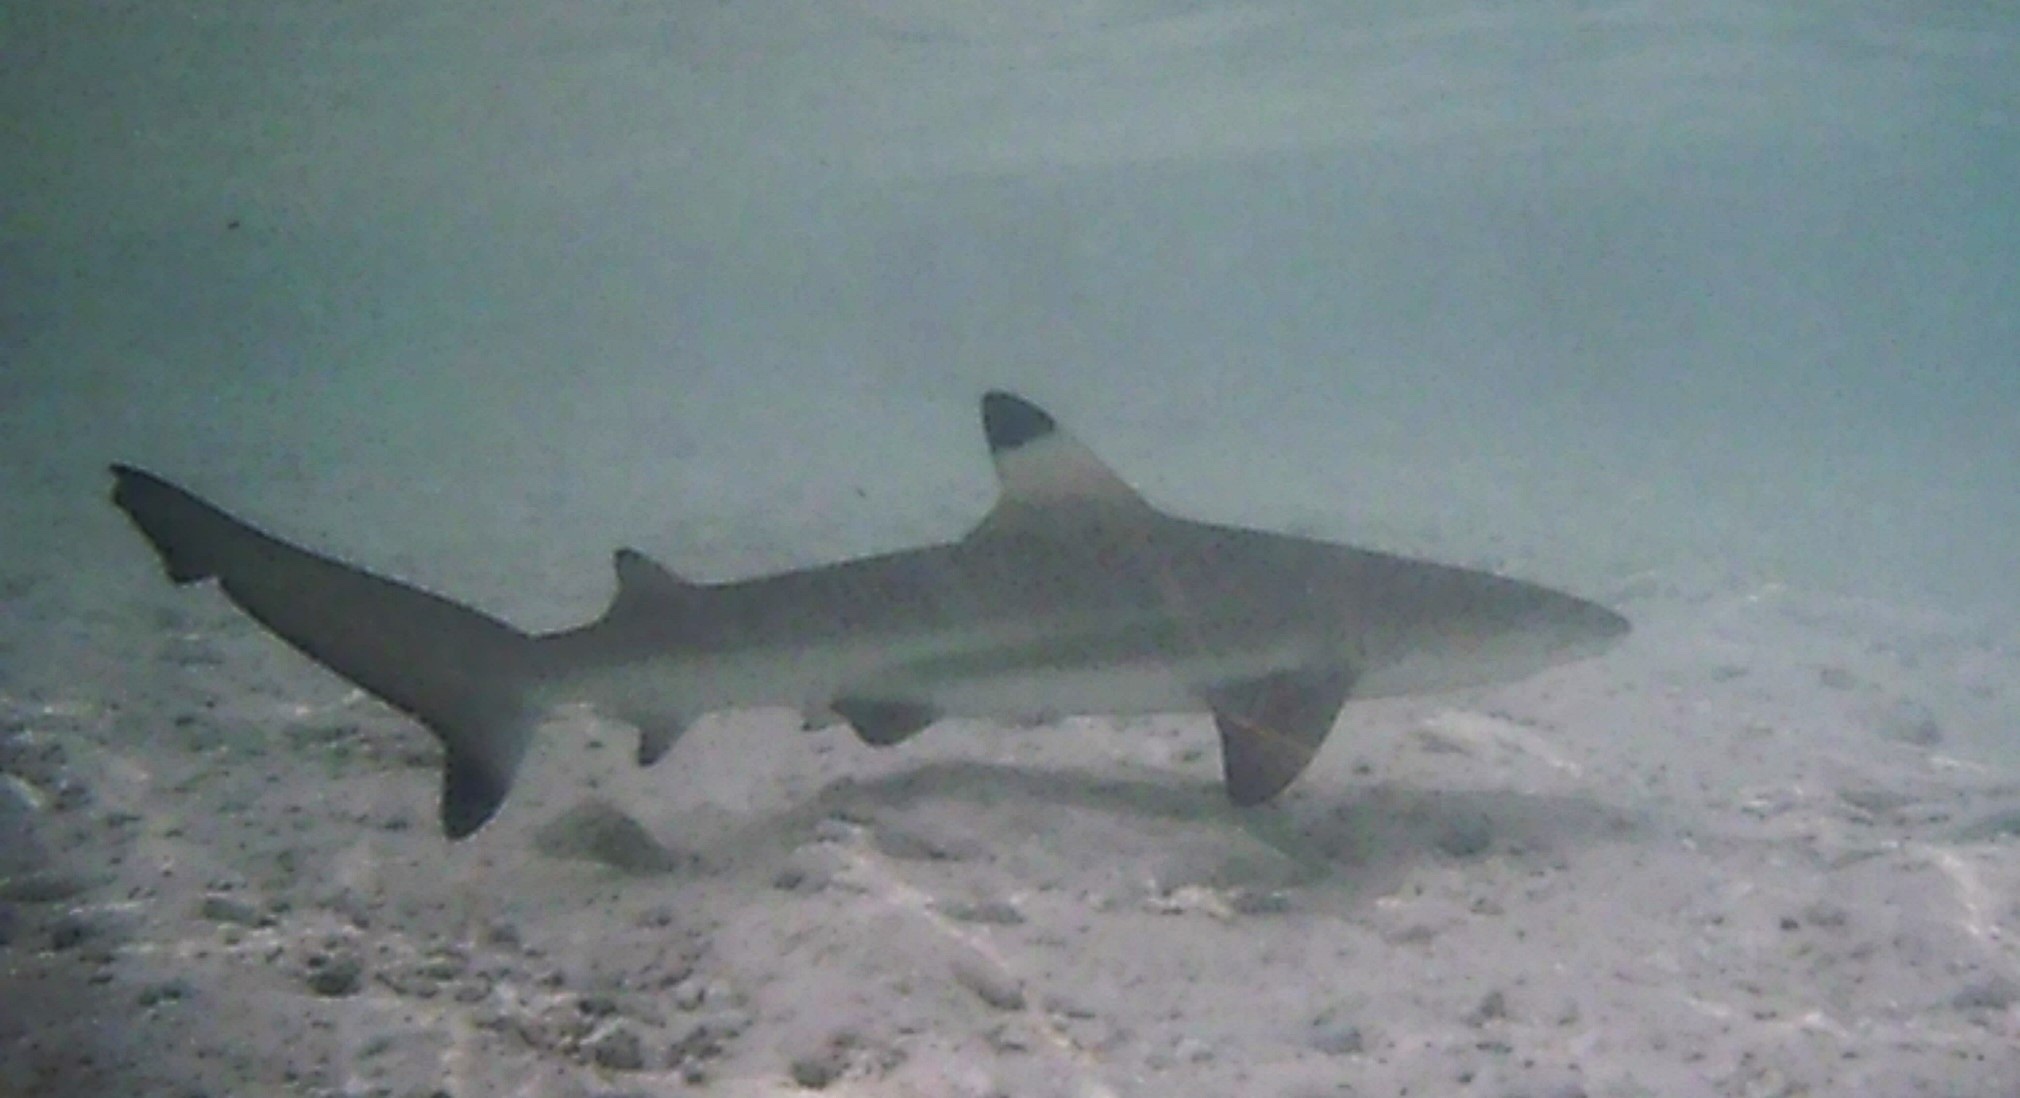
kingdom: Animalia
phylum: Chordata
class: Elasmobranchii
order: Carcharhiniformes
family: Carcharhinidae
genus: Carcharhinus
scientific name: Carcharhinus melanopterus
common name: Blacktip reef shark
